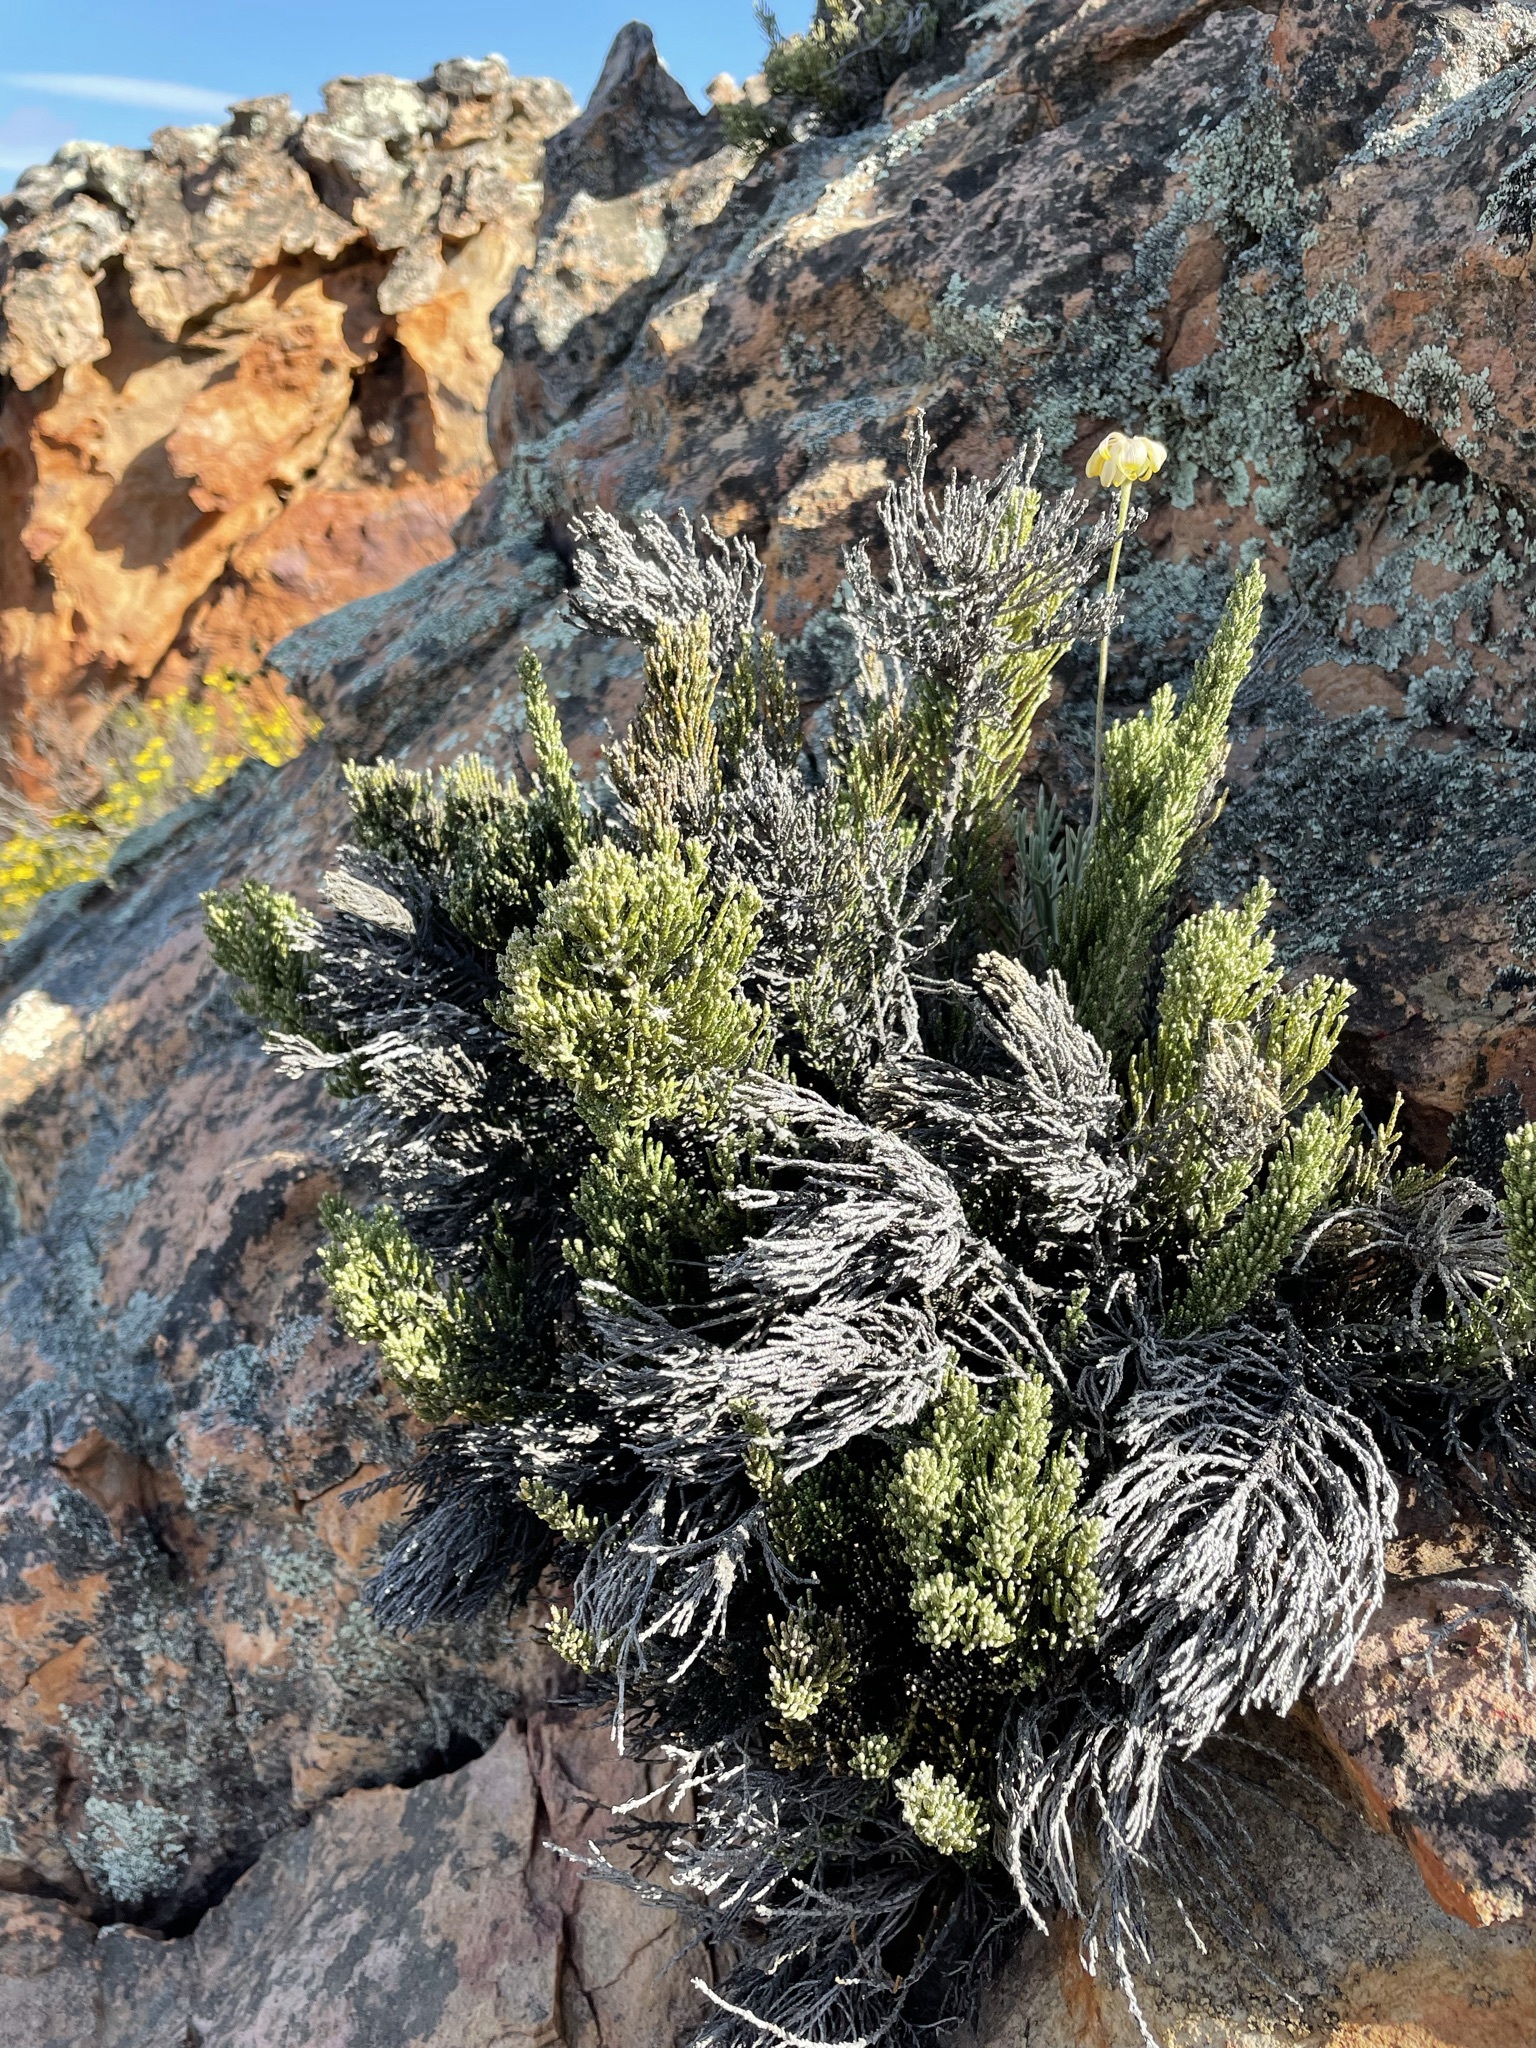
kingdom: Plantae
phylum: Tracheophyta
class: Magnoliopsida
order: Asterales
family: Asteraceae
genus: Dicerothamnus
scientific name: Dicerothamnus rhinocerotis
